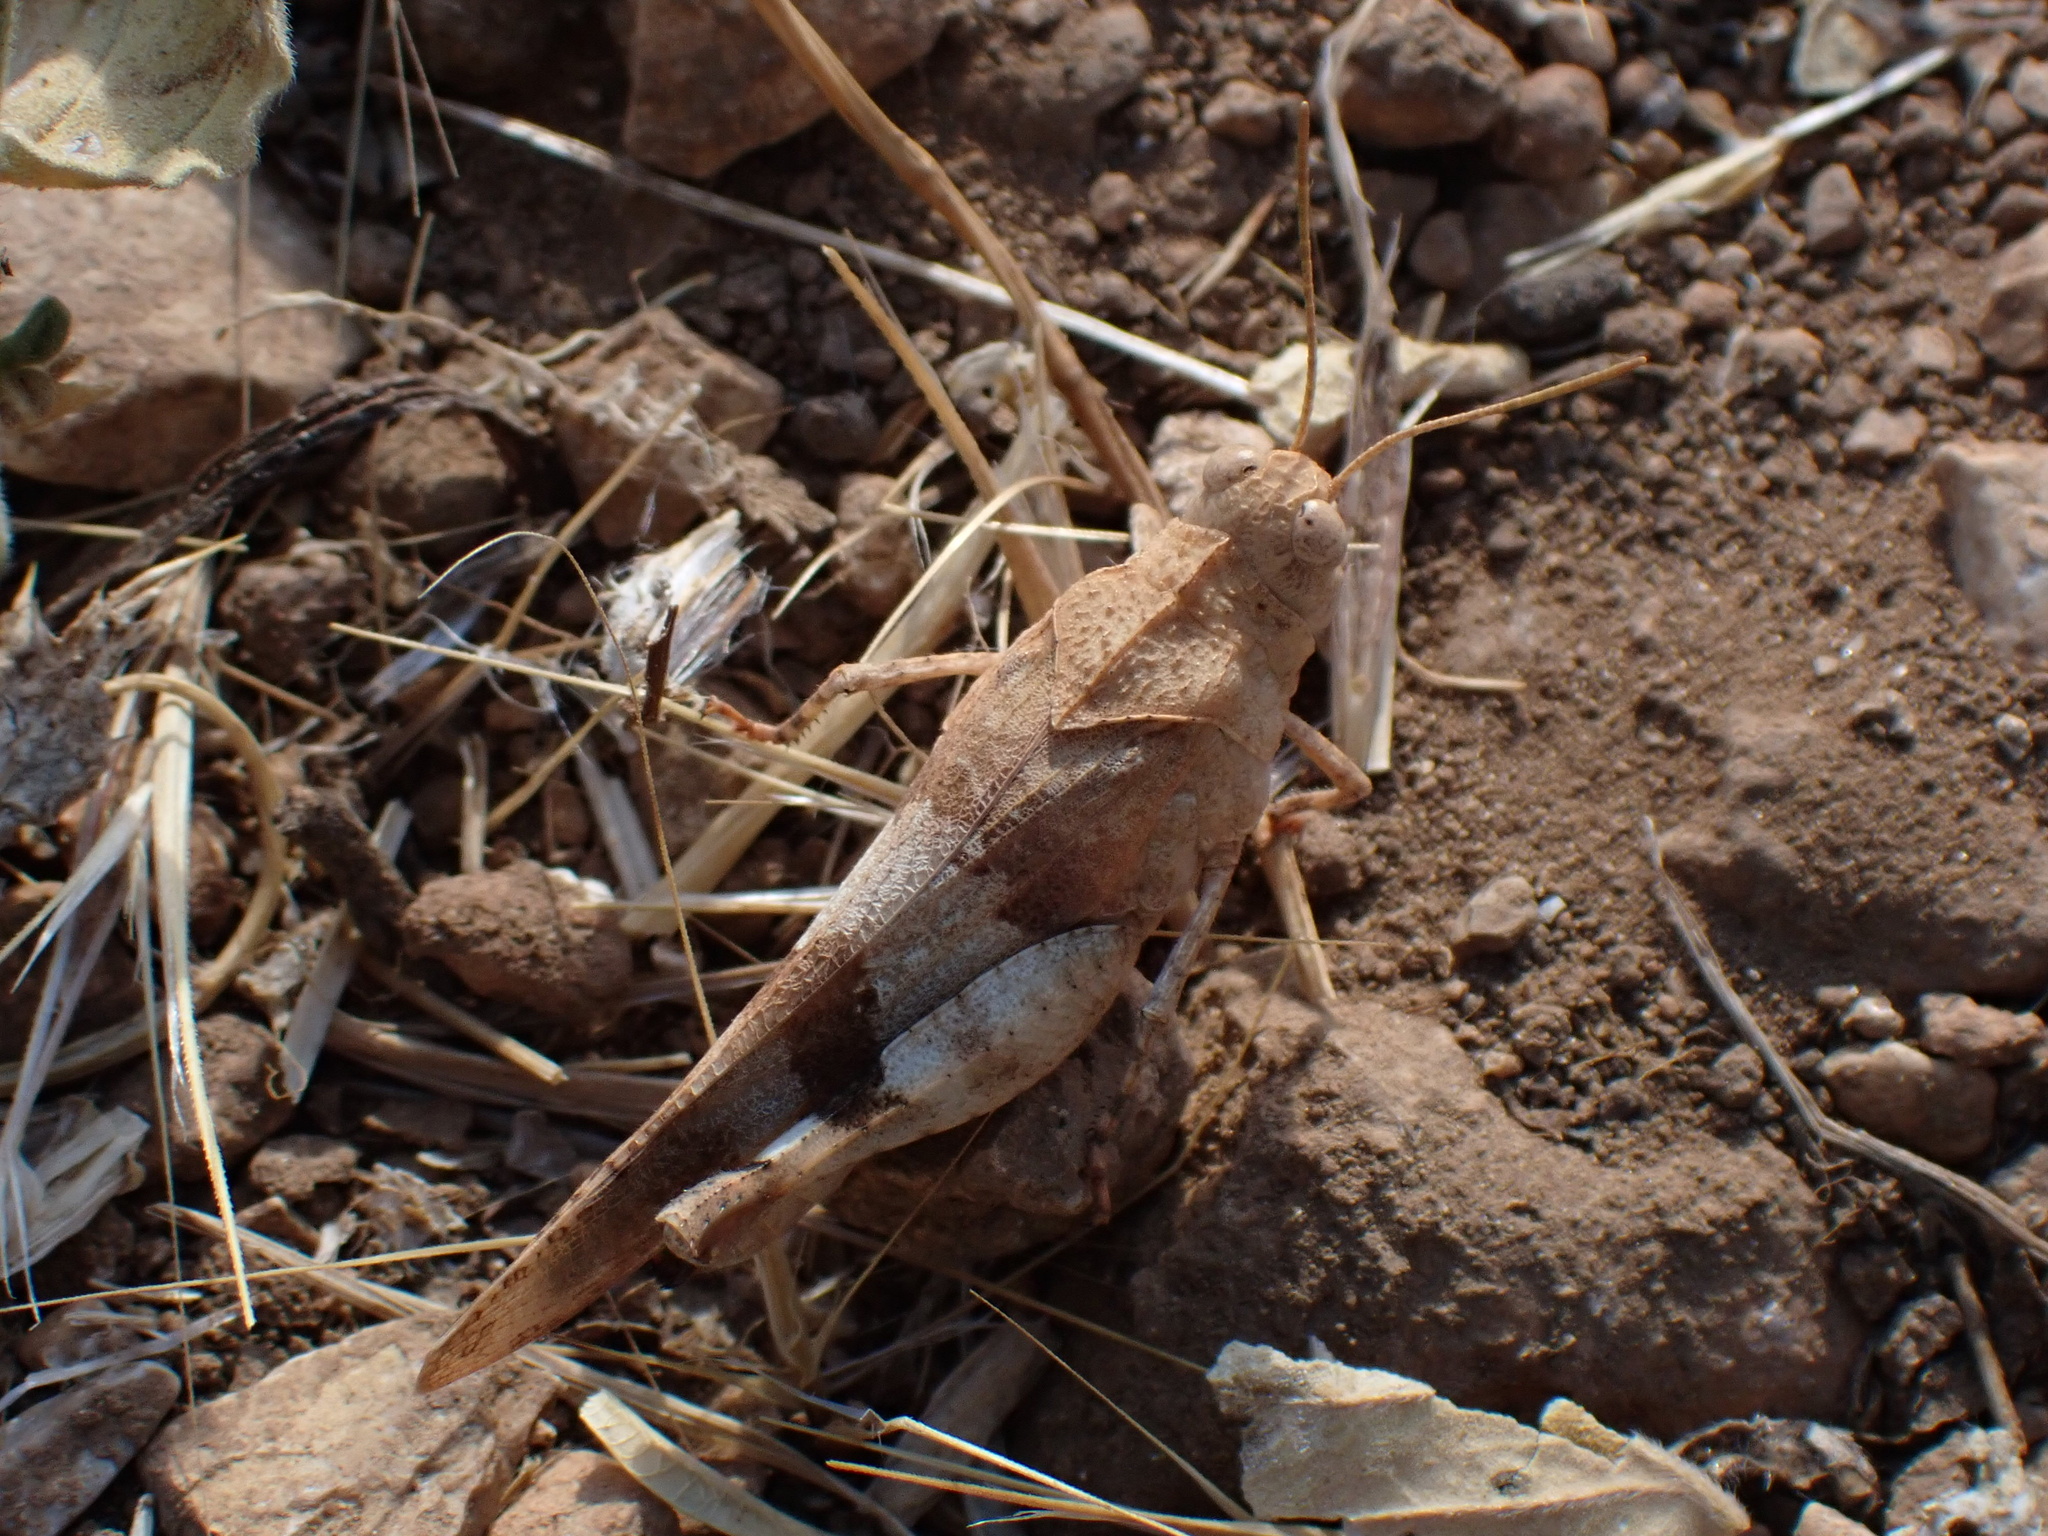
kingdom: Animalia
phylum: Arthropoda
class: Insecta
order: Orthoptera
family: Acrididae
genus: Oedipoda
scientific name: Oedipoda caerulescens
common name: Blue-winged grasshopper
